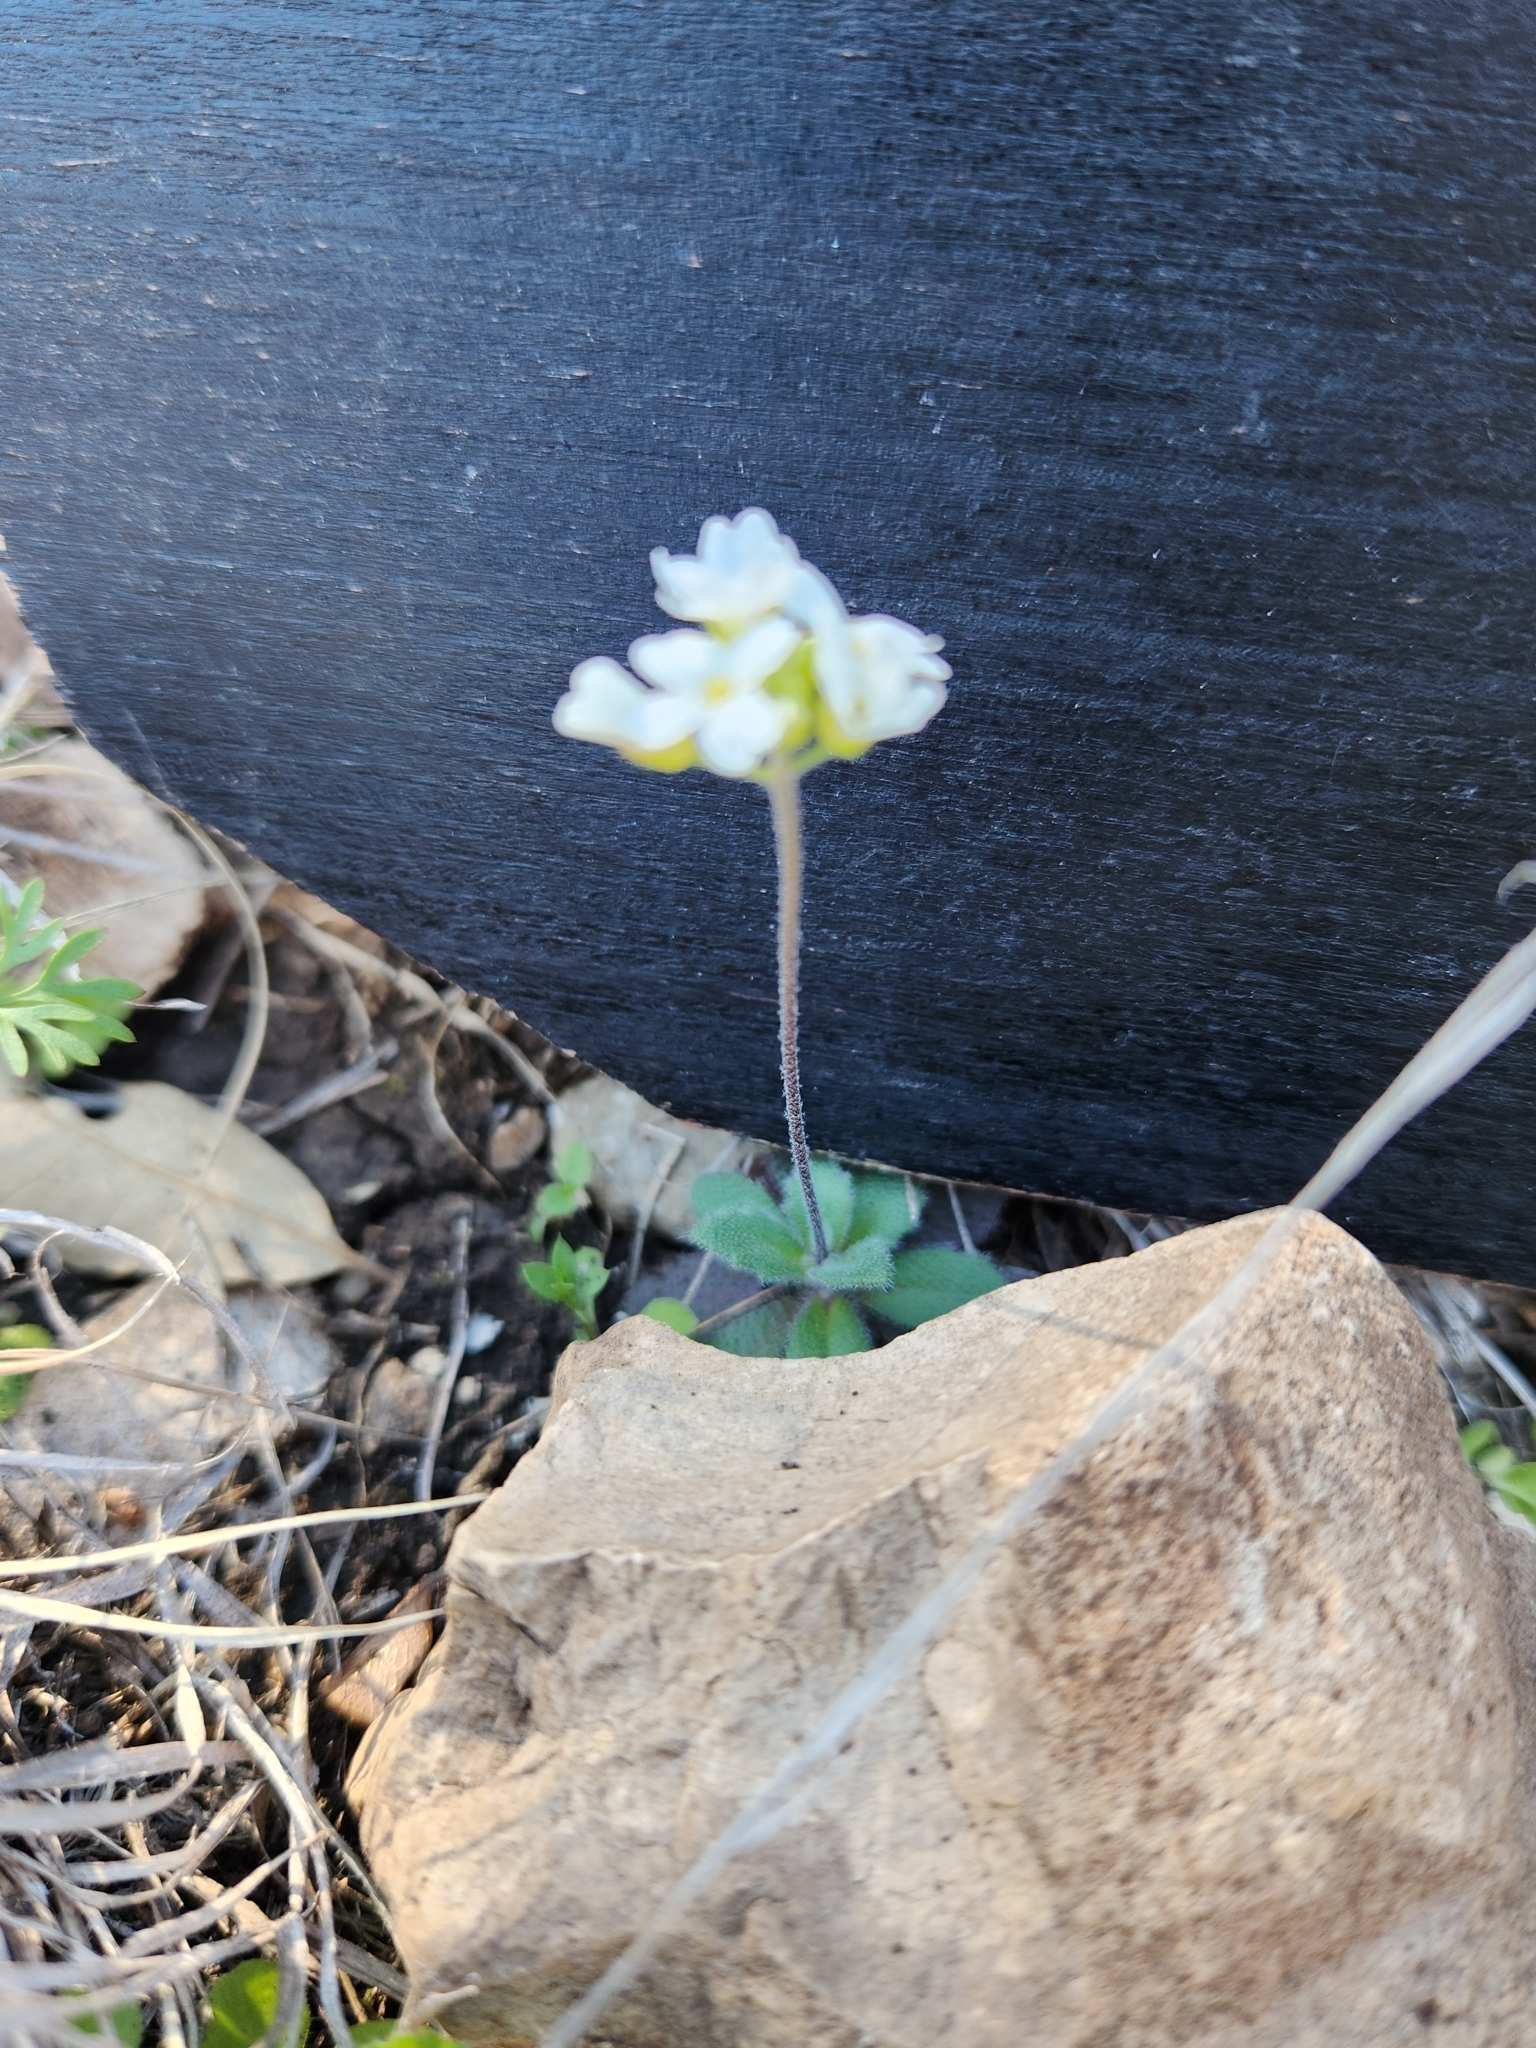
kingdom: Plantae
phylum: Tracheophyta
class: Magnoliopsida
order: Brassicales
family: Brassicaceae
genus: Tomostima
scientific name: Tomostima cuneifolia
